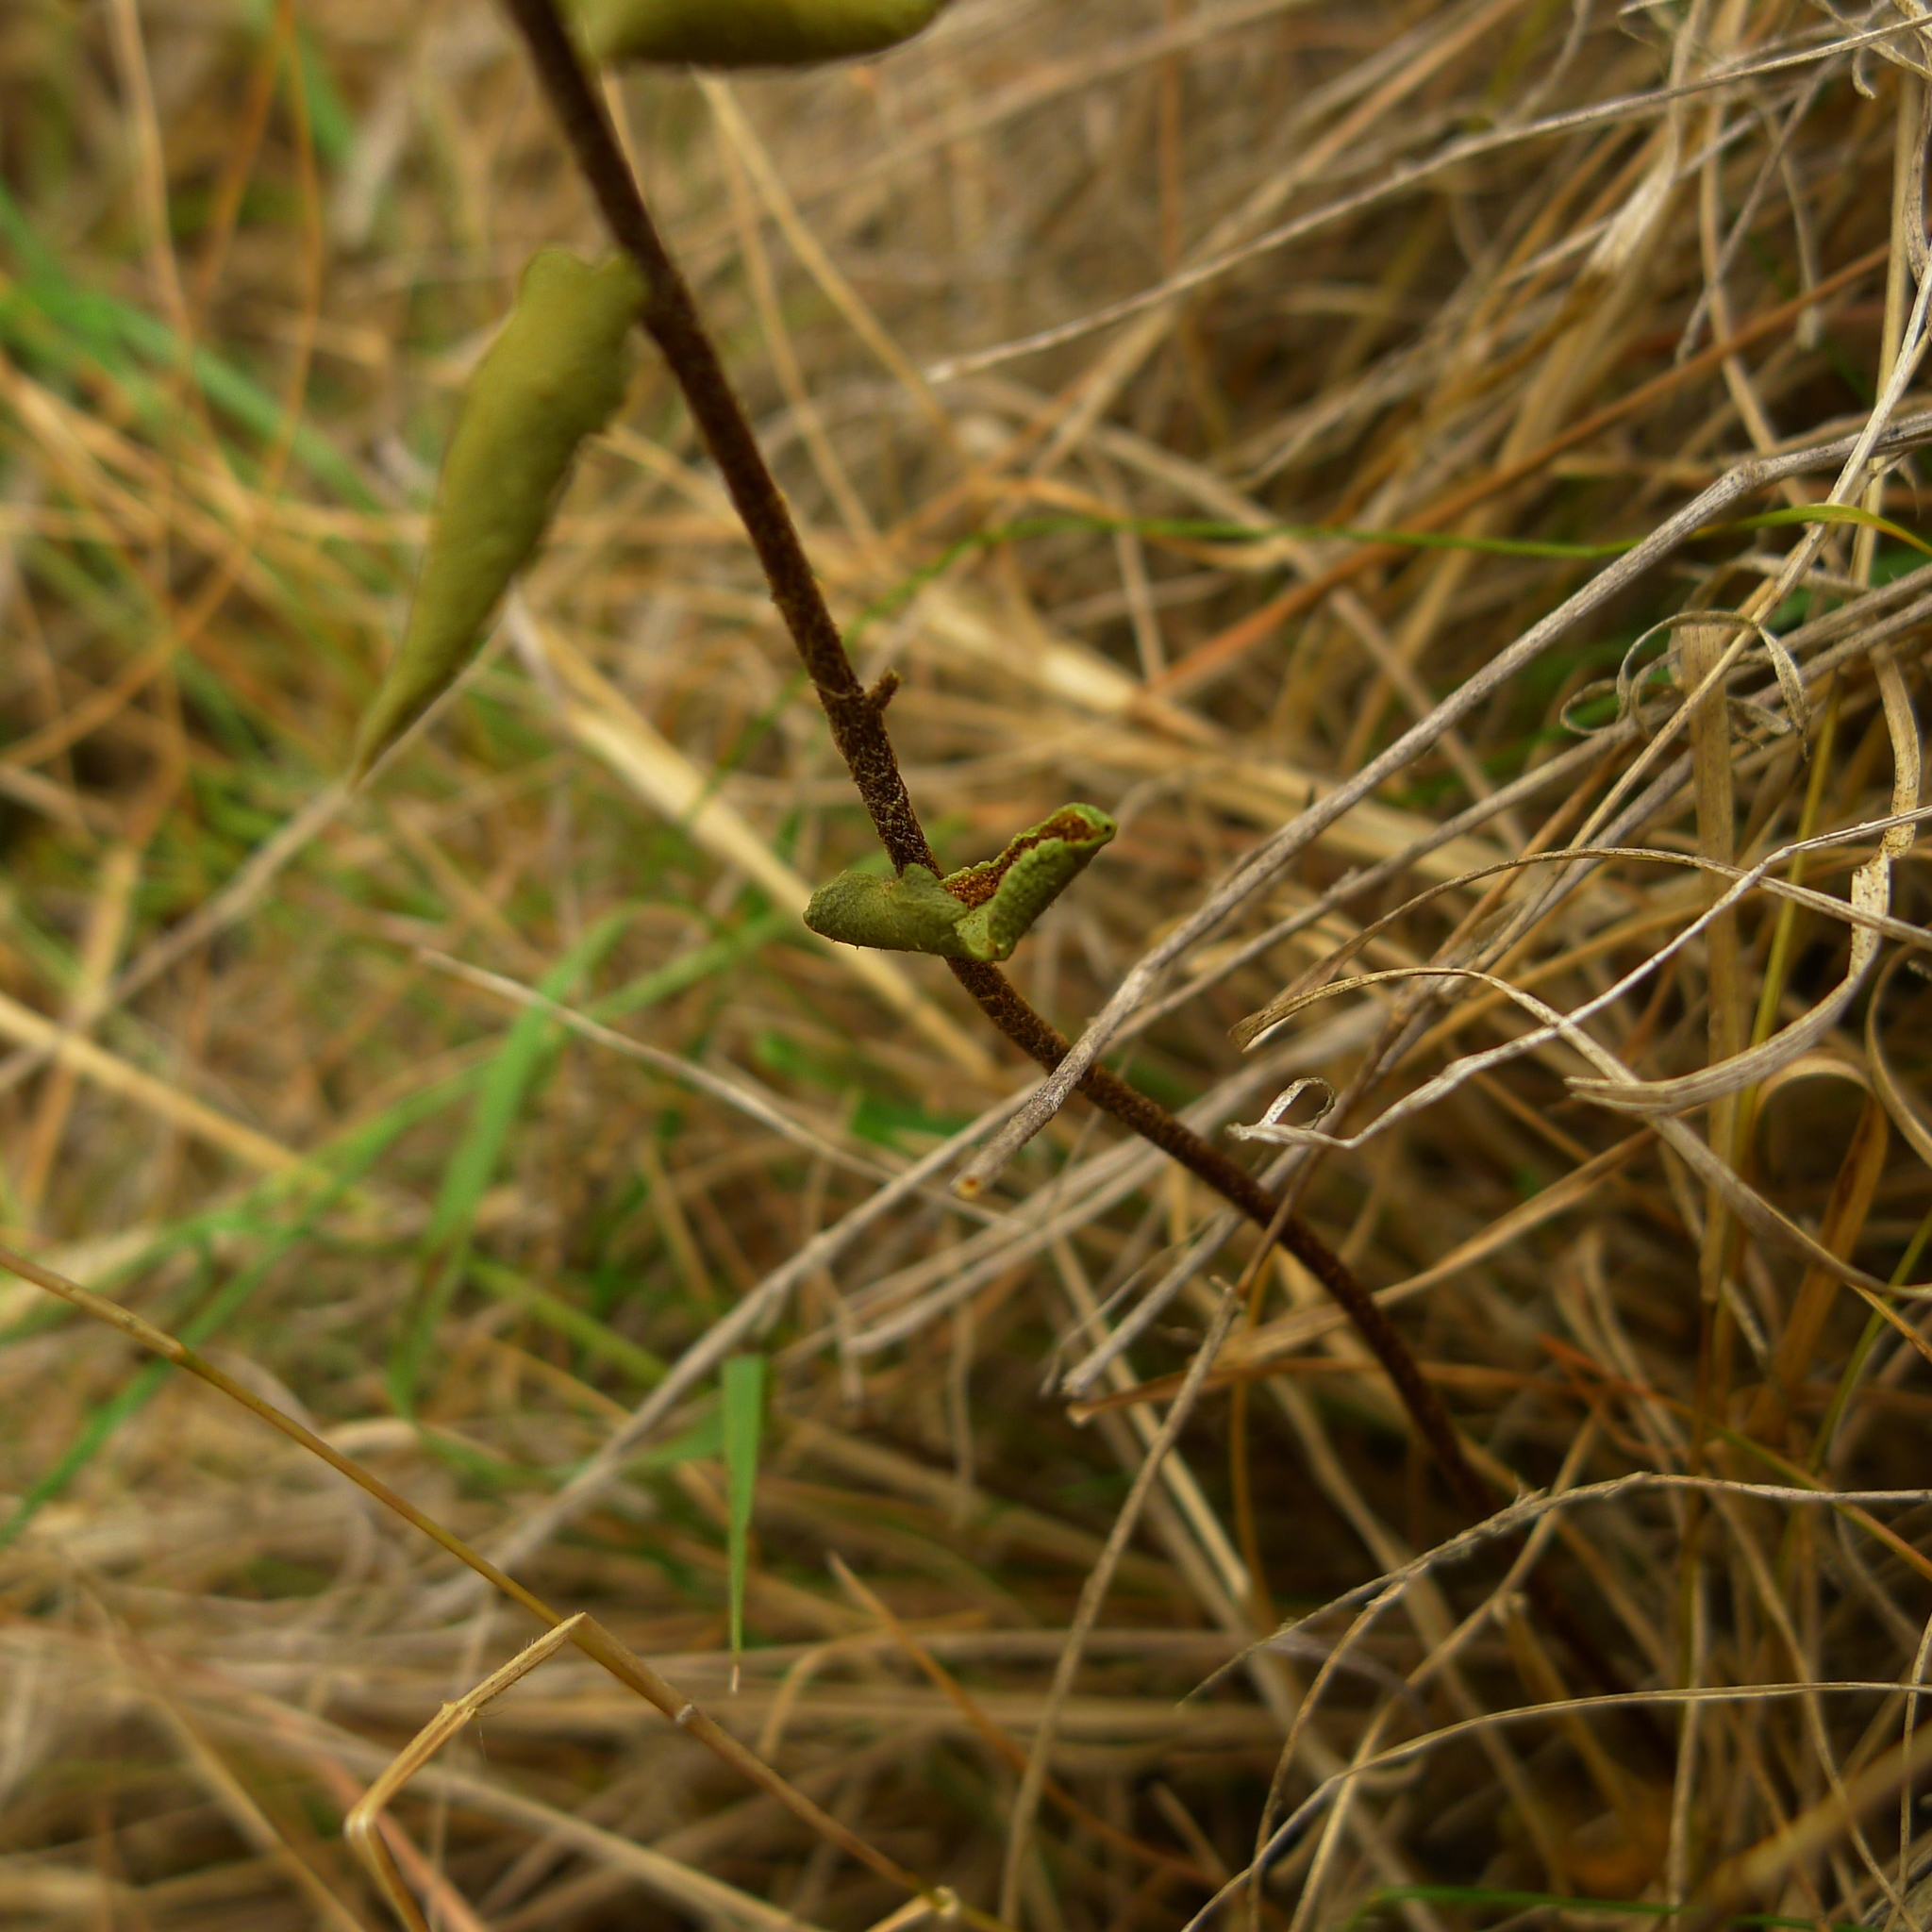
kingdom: Plantae
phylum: Tracheophyta
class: Polypodiopsida
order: Polypodiales
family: Pteridaceae
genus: Pellaea
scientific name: Pellaea calidirupium
